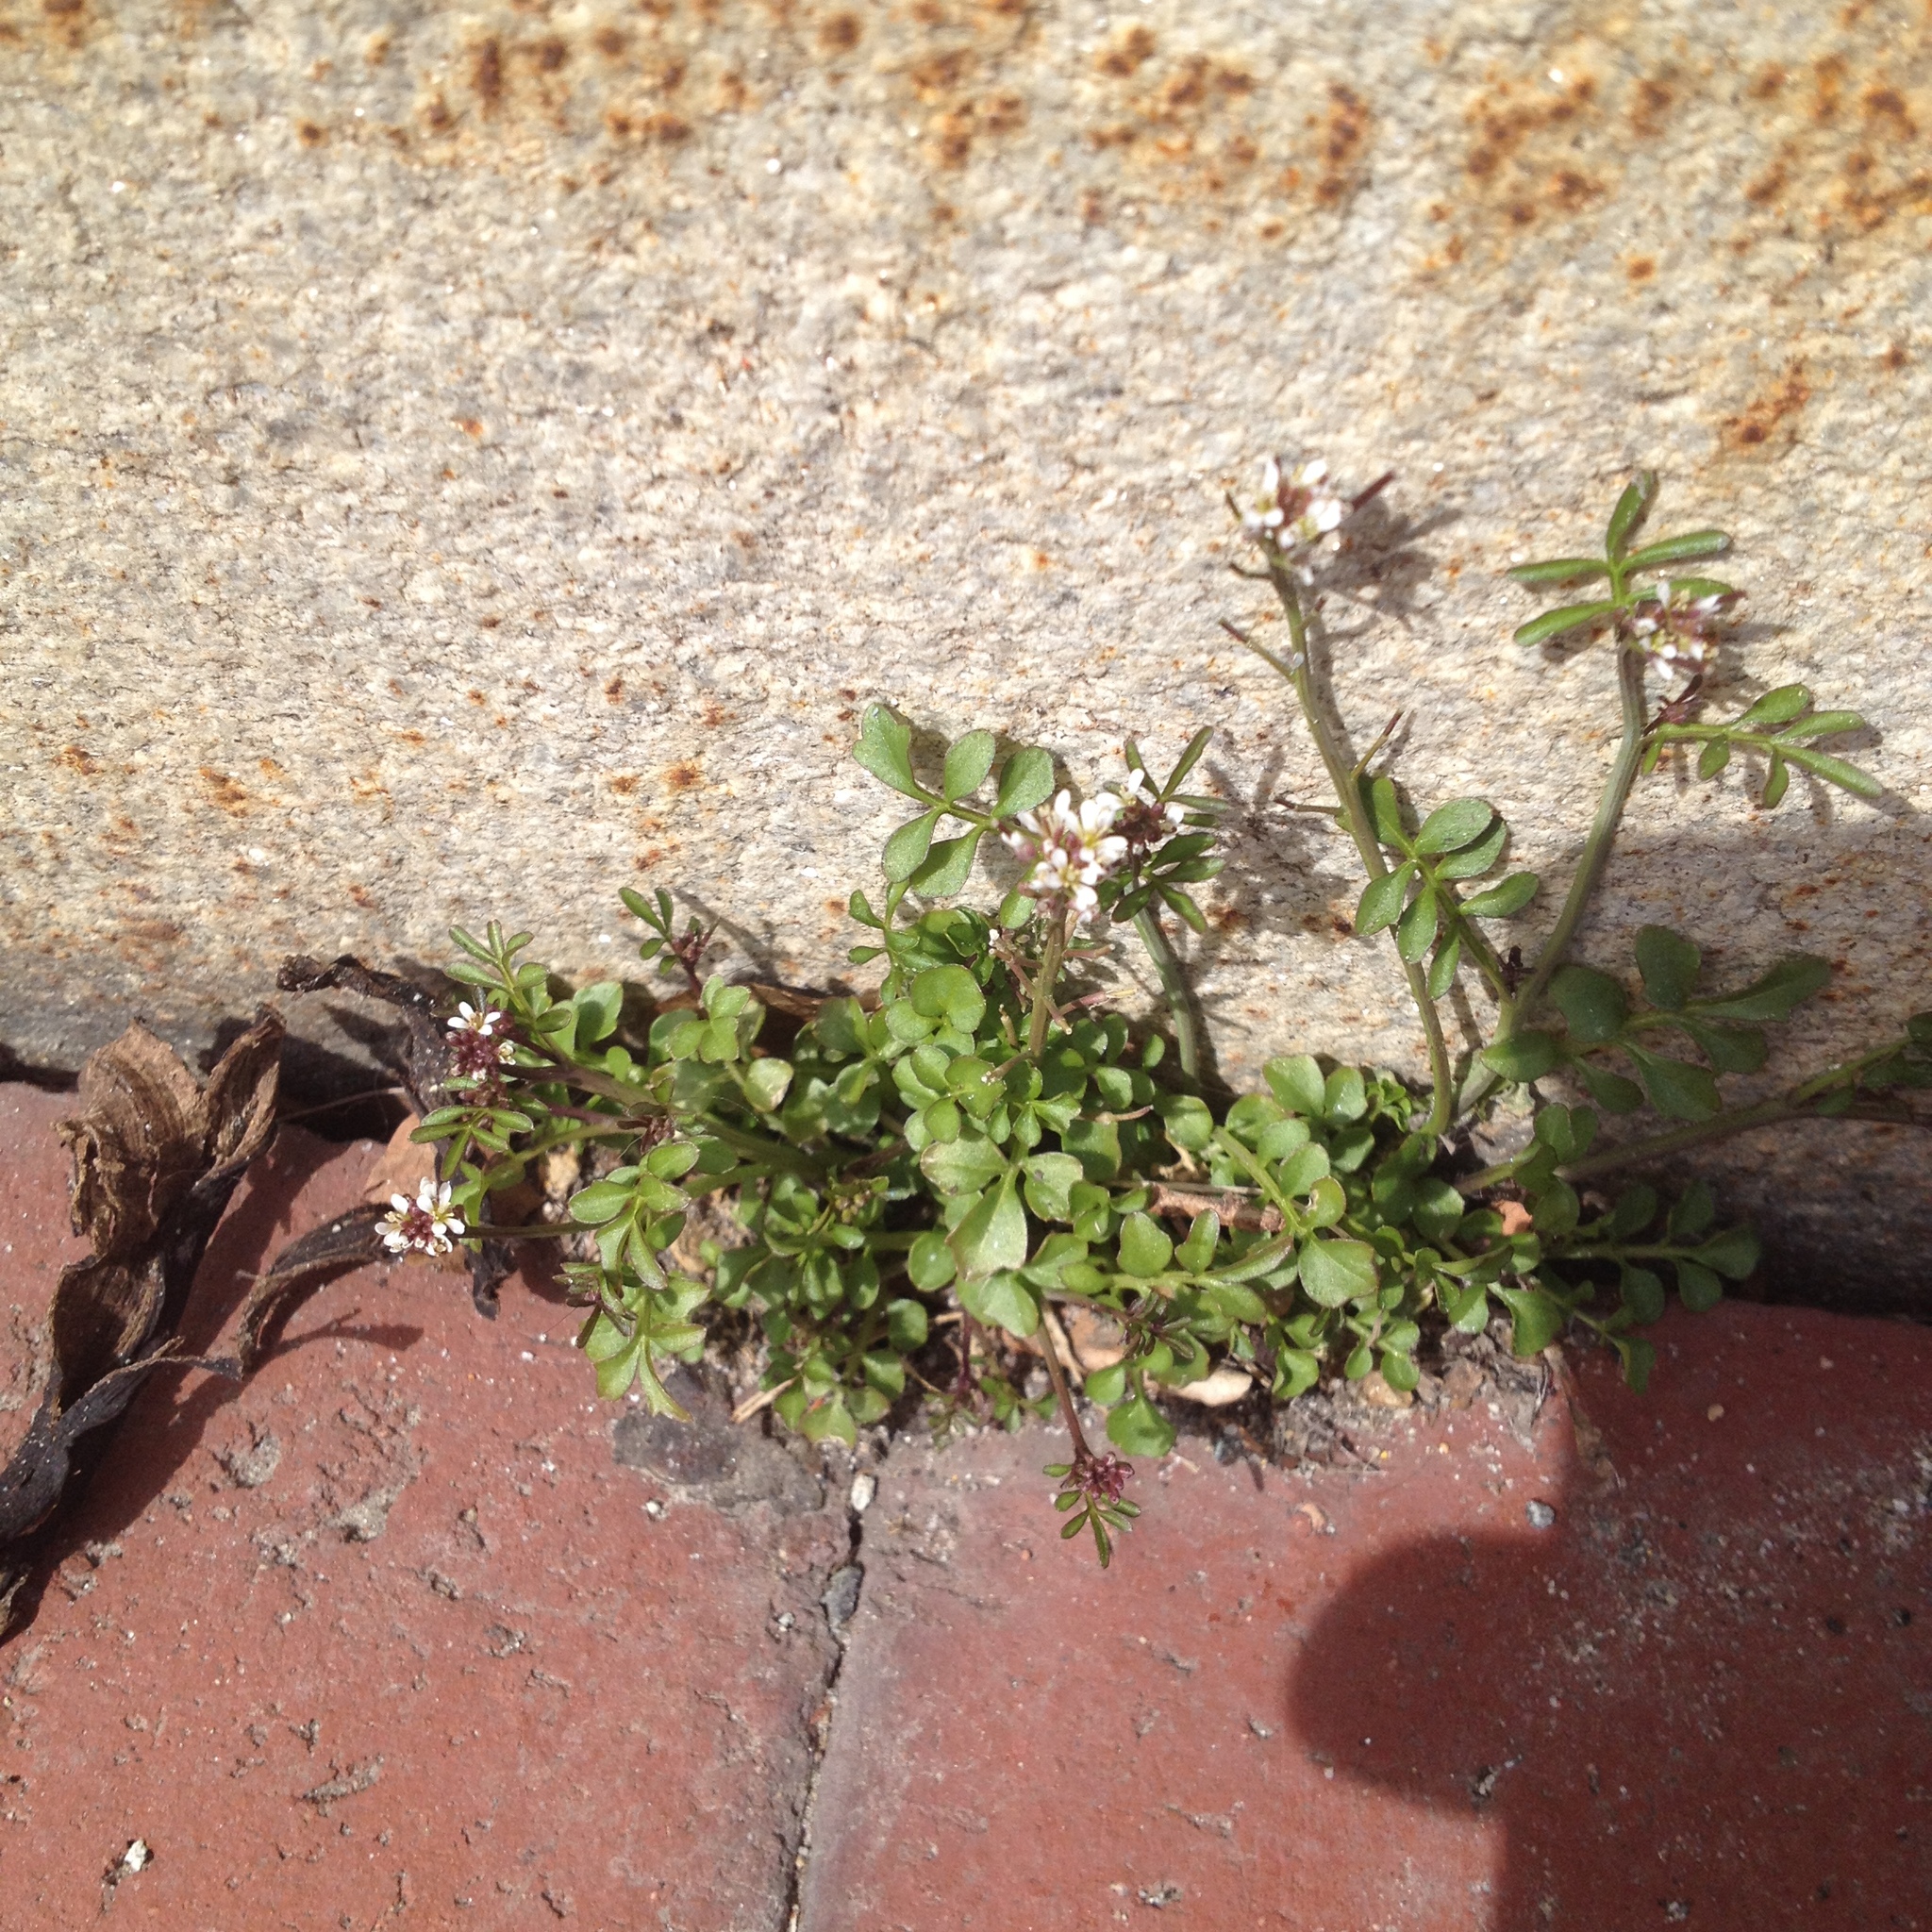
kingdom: Plantae
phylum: Tracheophyta
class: Magnoliopsida
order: Brassicales
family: Brassicaceae
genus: Cardamine
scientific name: Cardamine hirsuta
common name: Hairy bittercress
